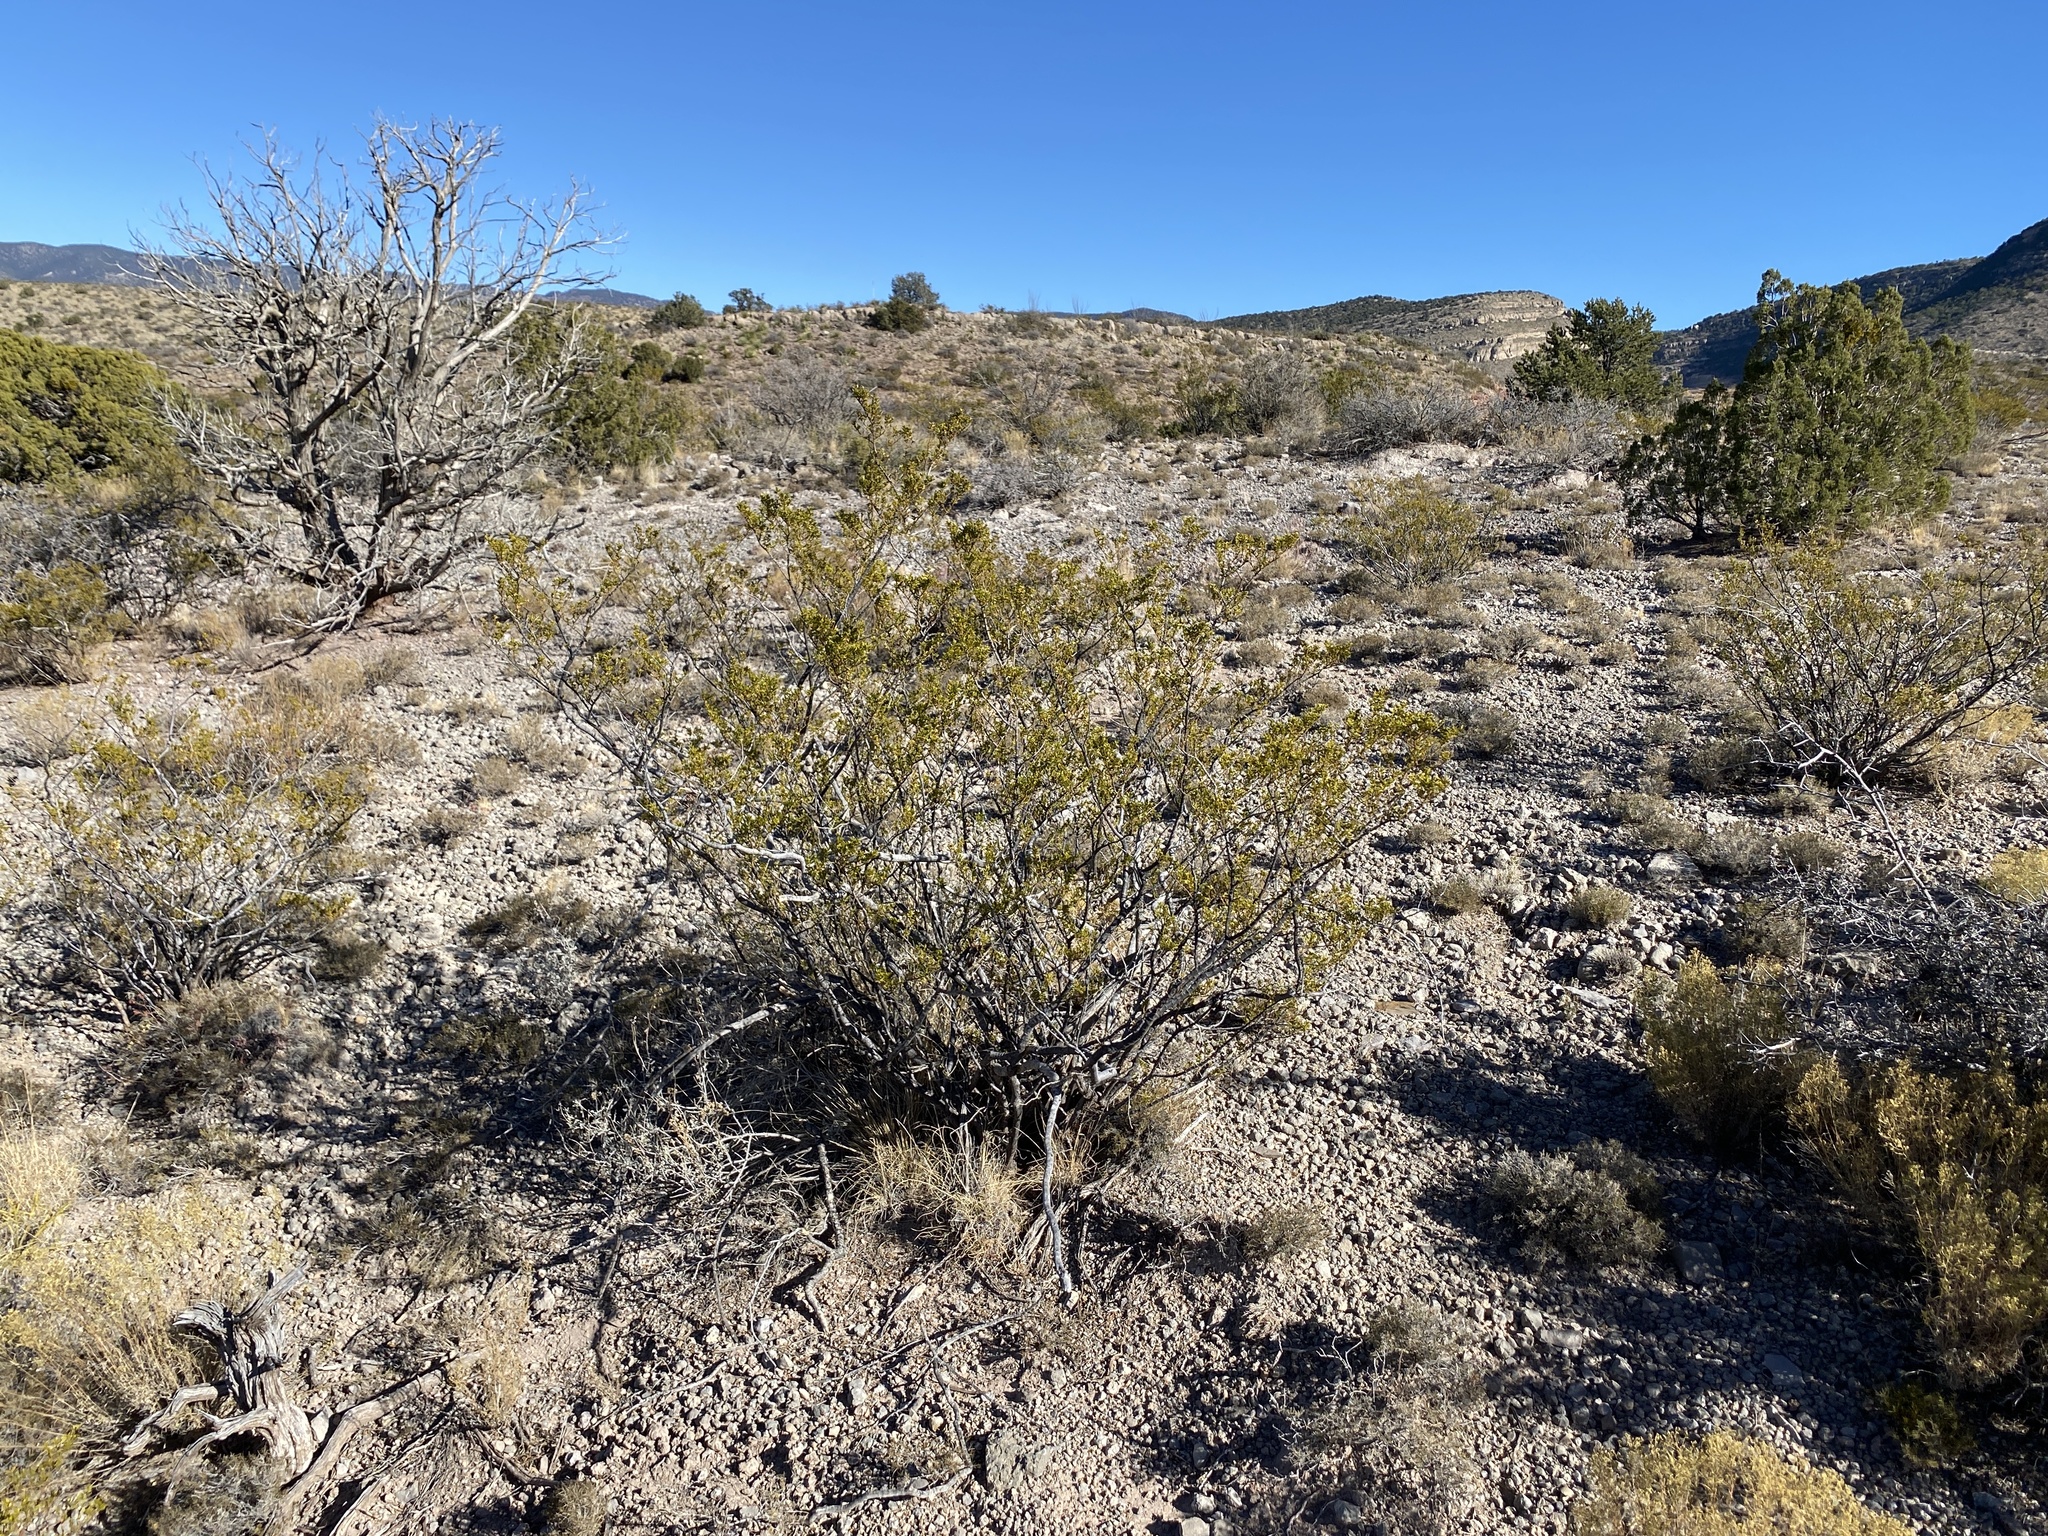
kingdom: Plantae
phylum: Tracheophyta
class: Magnoliopsida
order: Zygophyllales
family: Zygophyllaceae
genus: Larrea
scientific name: Larrea tridentata
